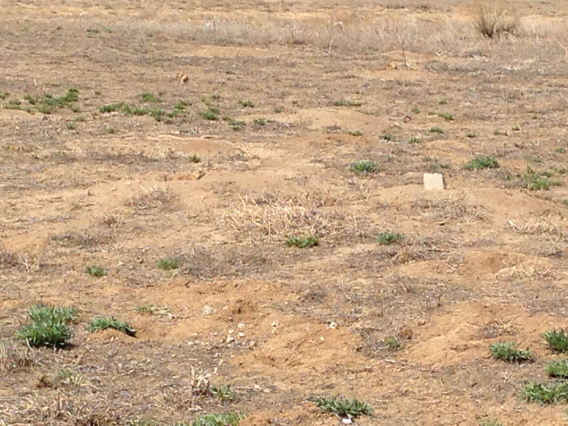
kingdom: Animalia
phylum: Chordata
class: Mammalia
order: Rodentia
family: Sciuridae
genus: Cynomys
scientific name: Cynomys ludovicianus
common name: Black-tailed prairie dog
